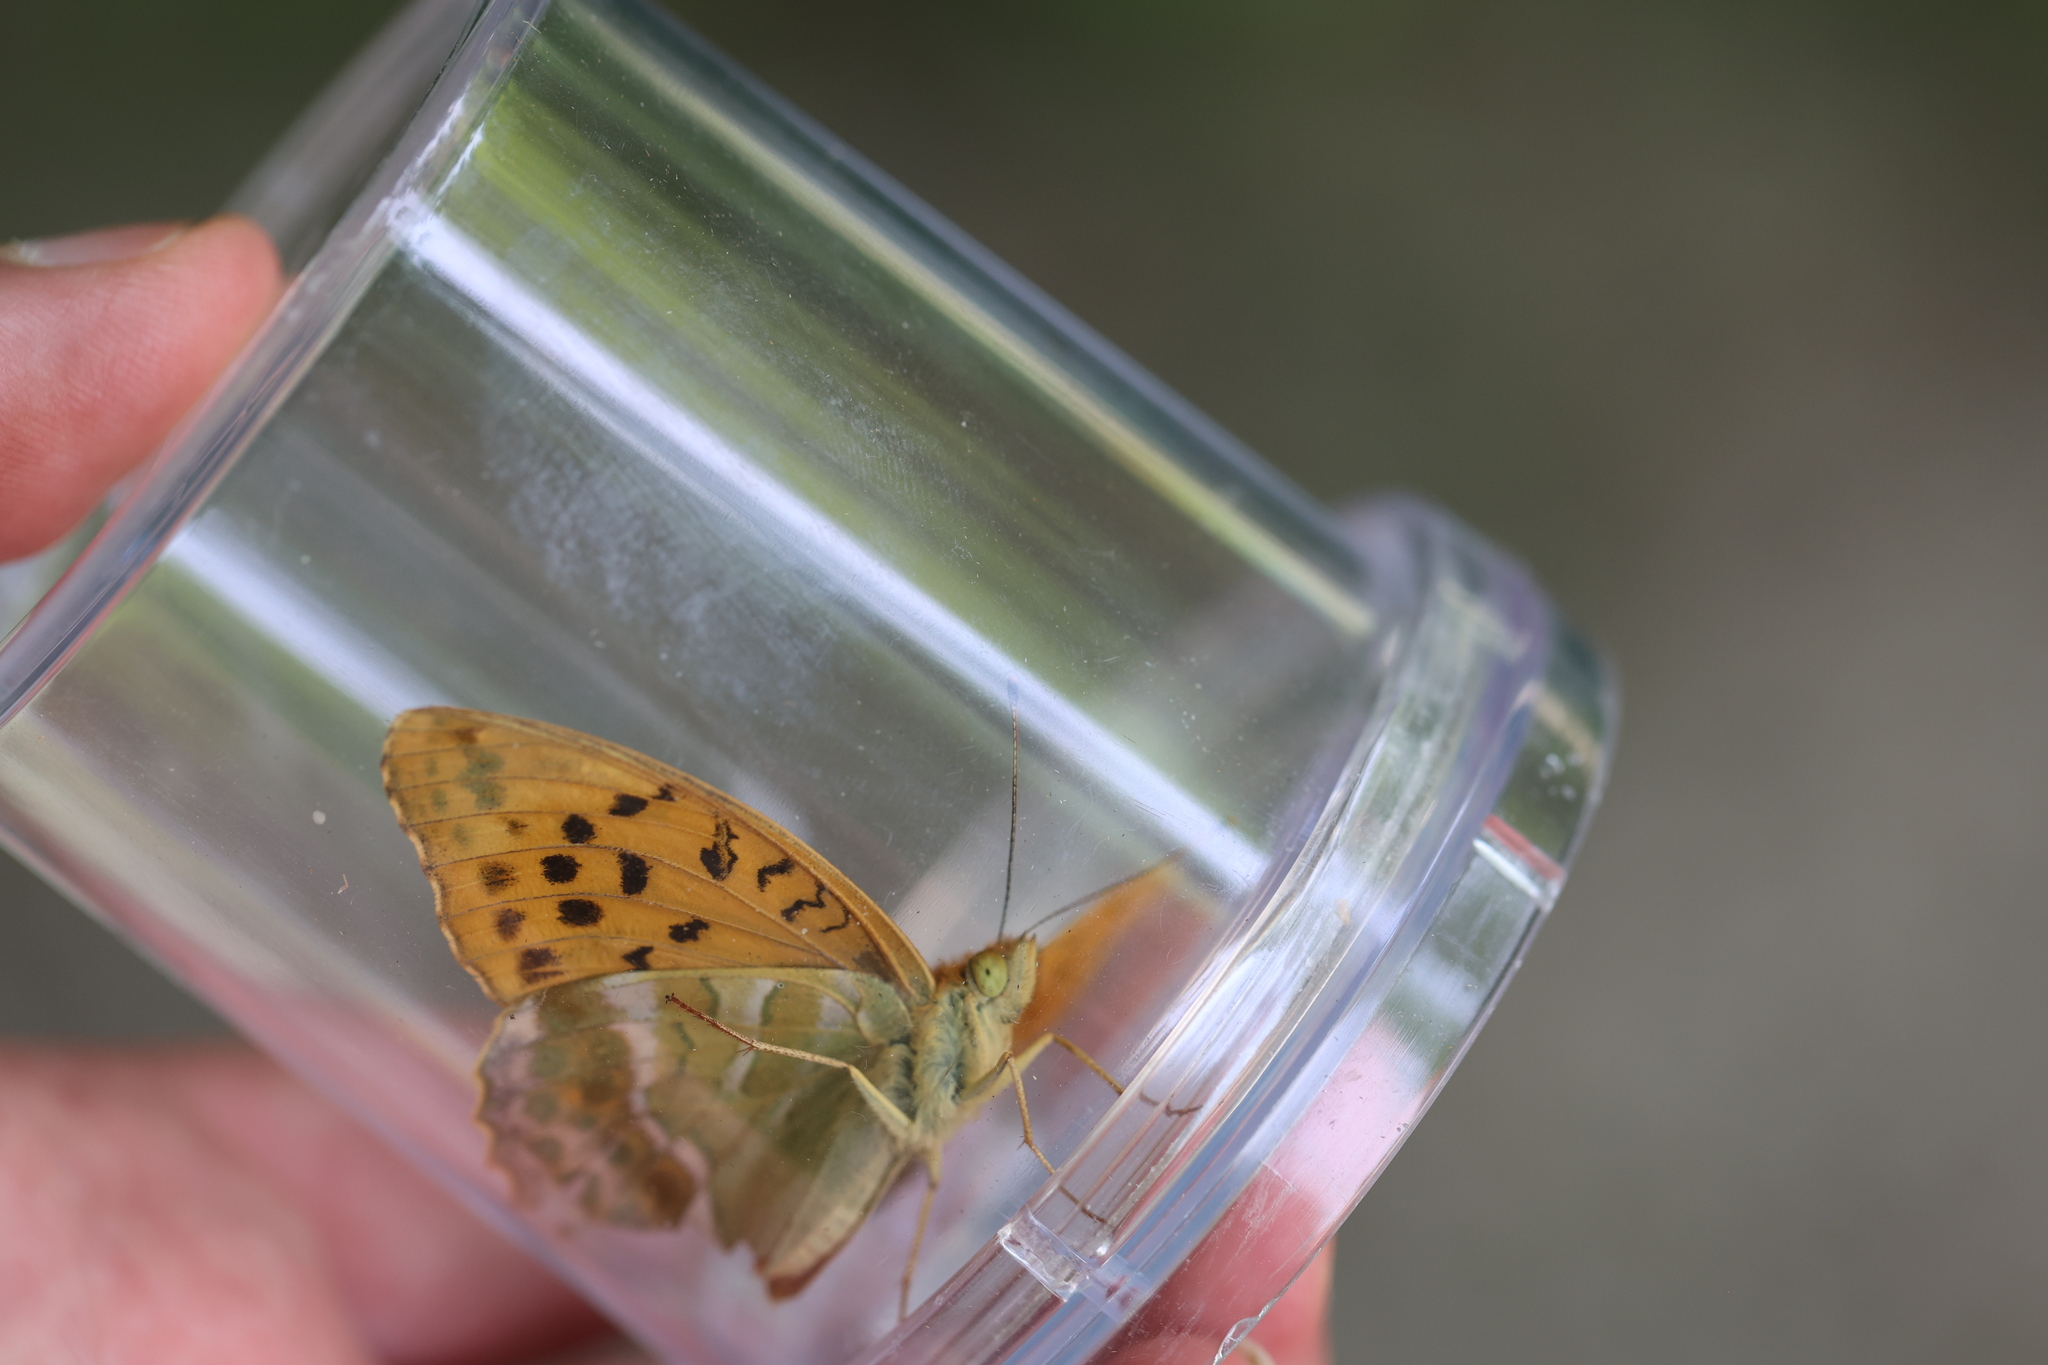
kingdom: Animalia
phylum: Arthropoda
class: Insecta
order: Lepidoptera
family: Nymphalidae
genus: Argynnis
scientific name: Argynnis paphia
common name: Silver-washed fritillary
